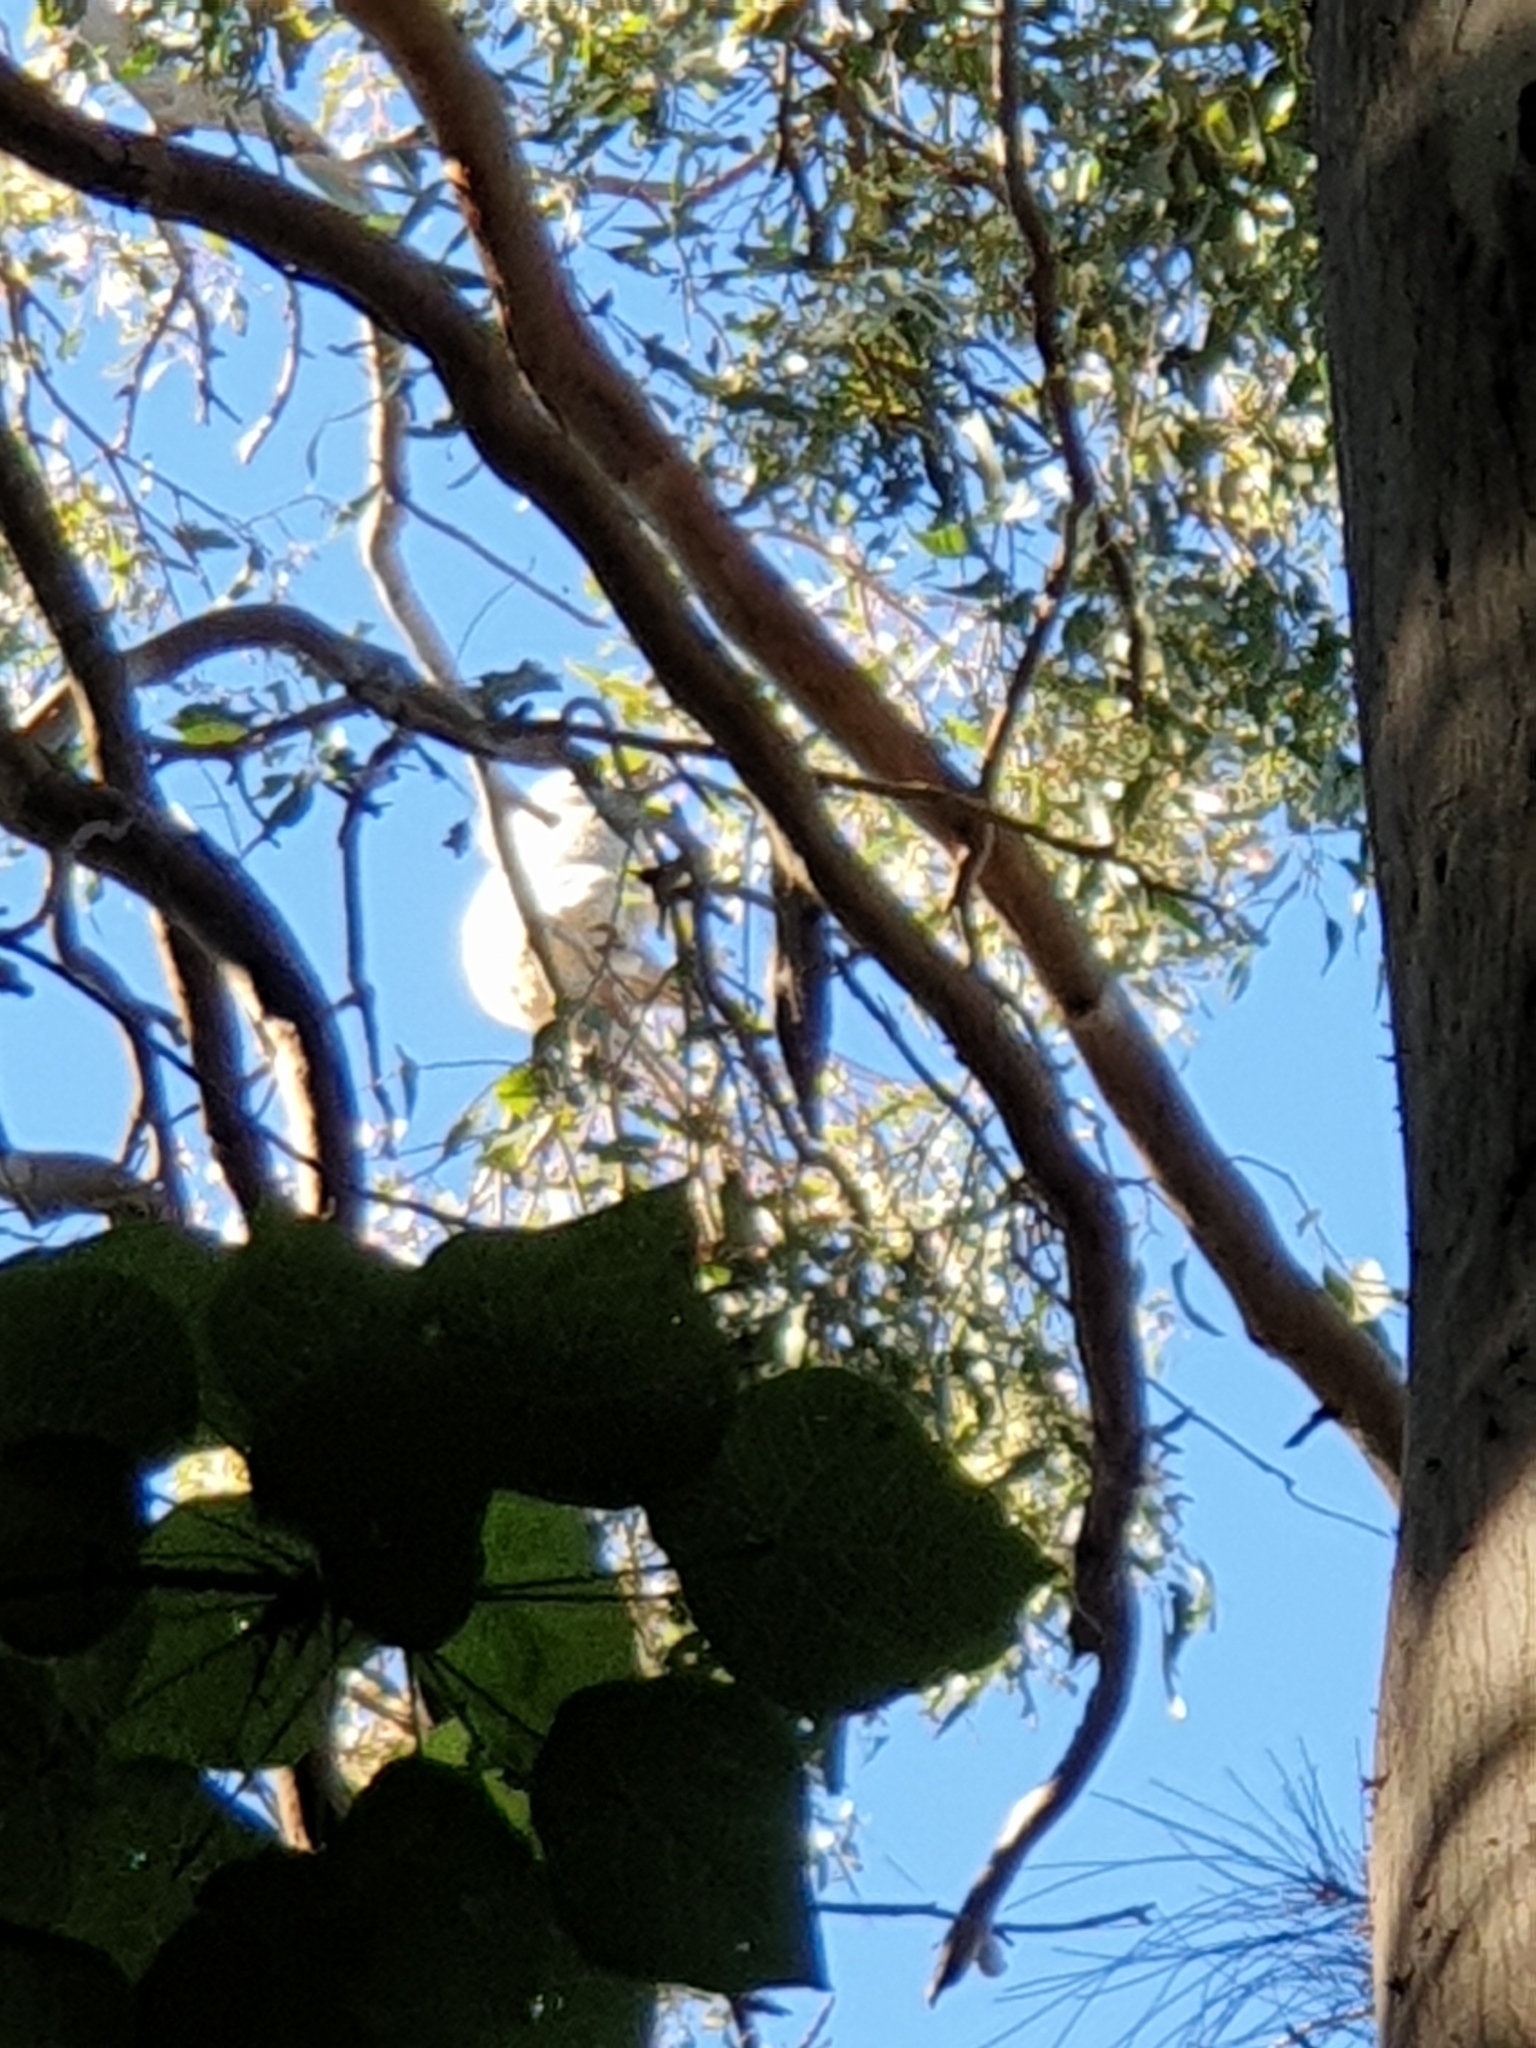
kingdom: Animalia
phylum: Chordata
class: Mammalia
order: Diprotodontia
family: Phascolarctidae
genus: Phascolarctos
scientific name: Phascolarctos cinereus
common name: Koala
